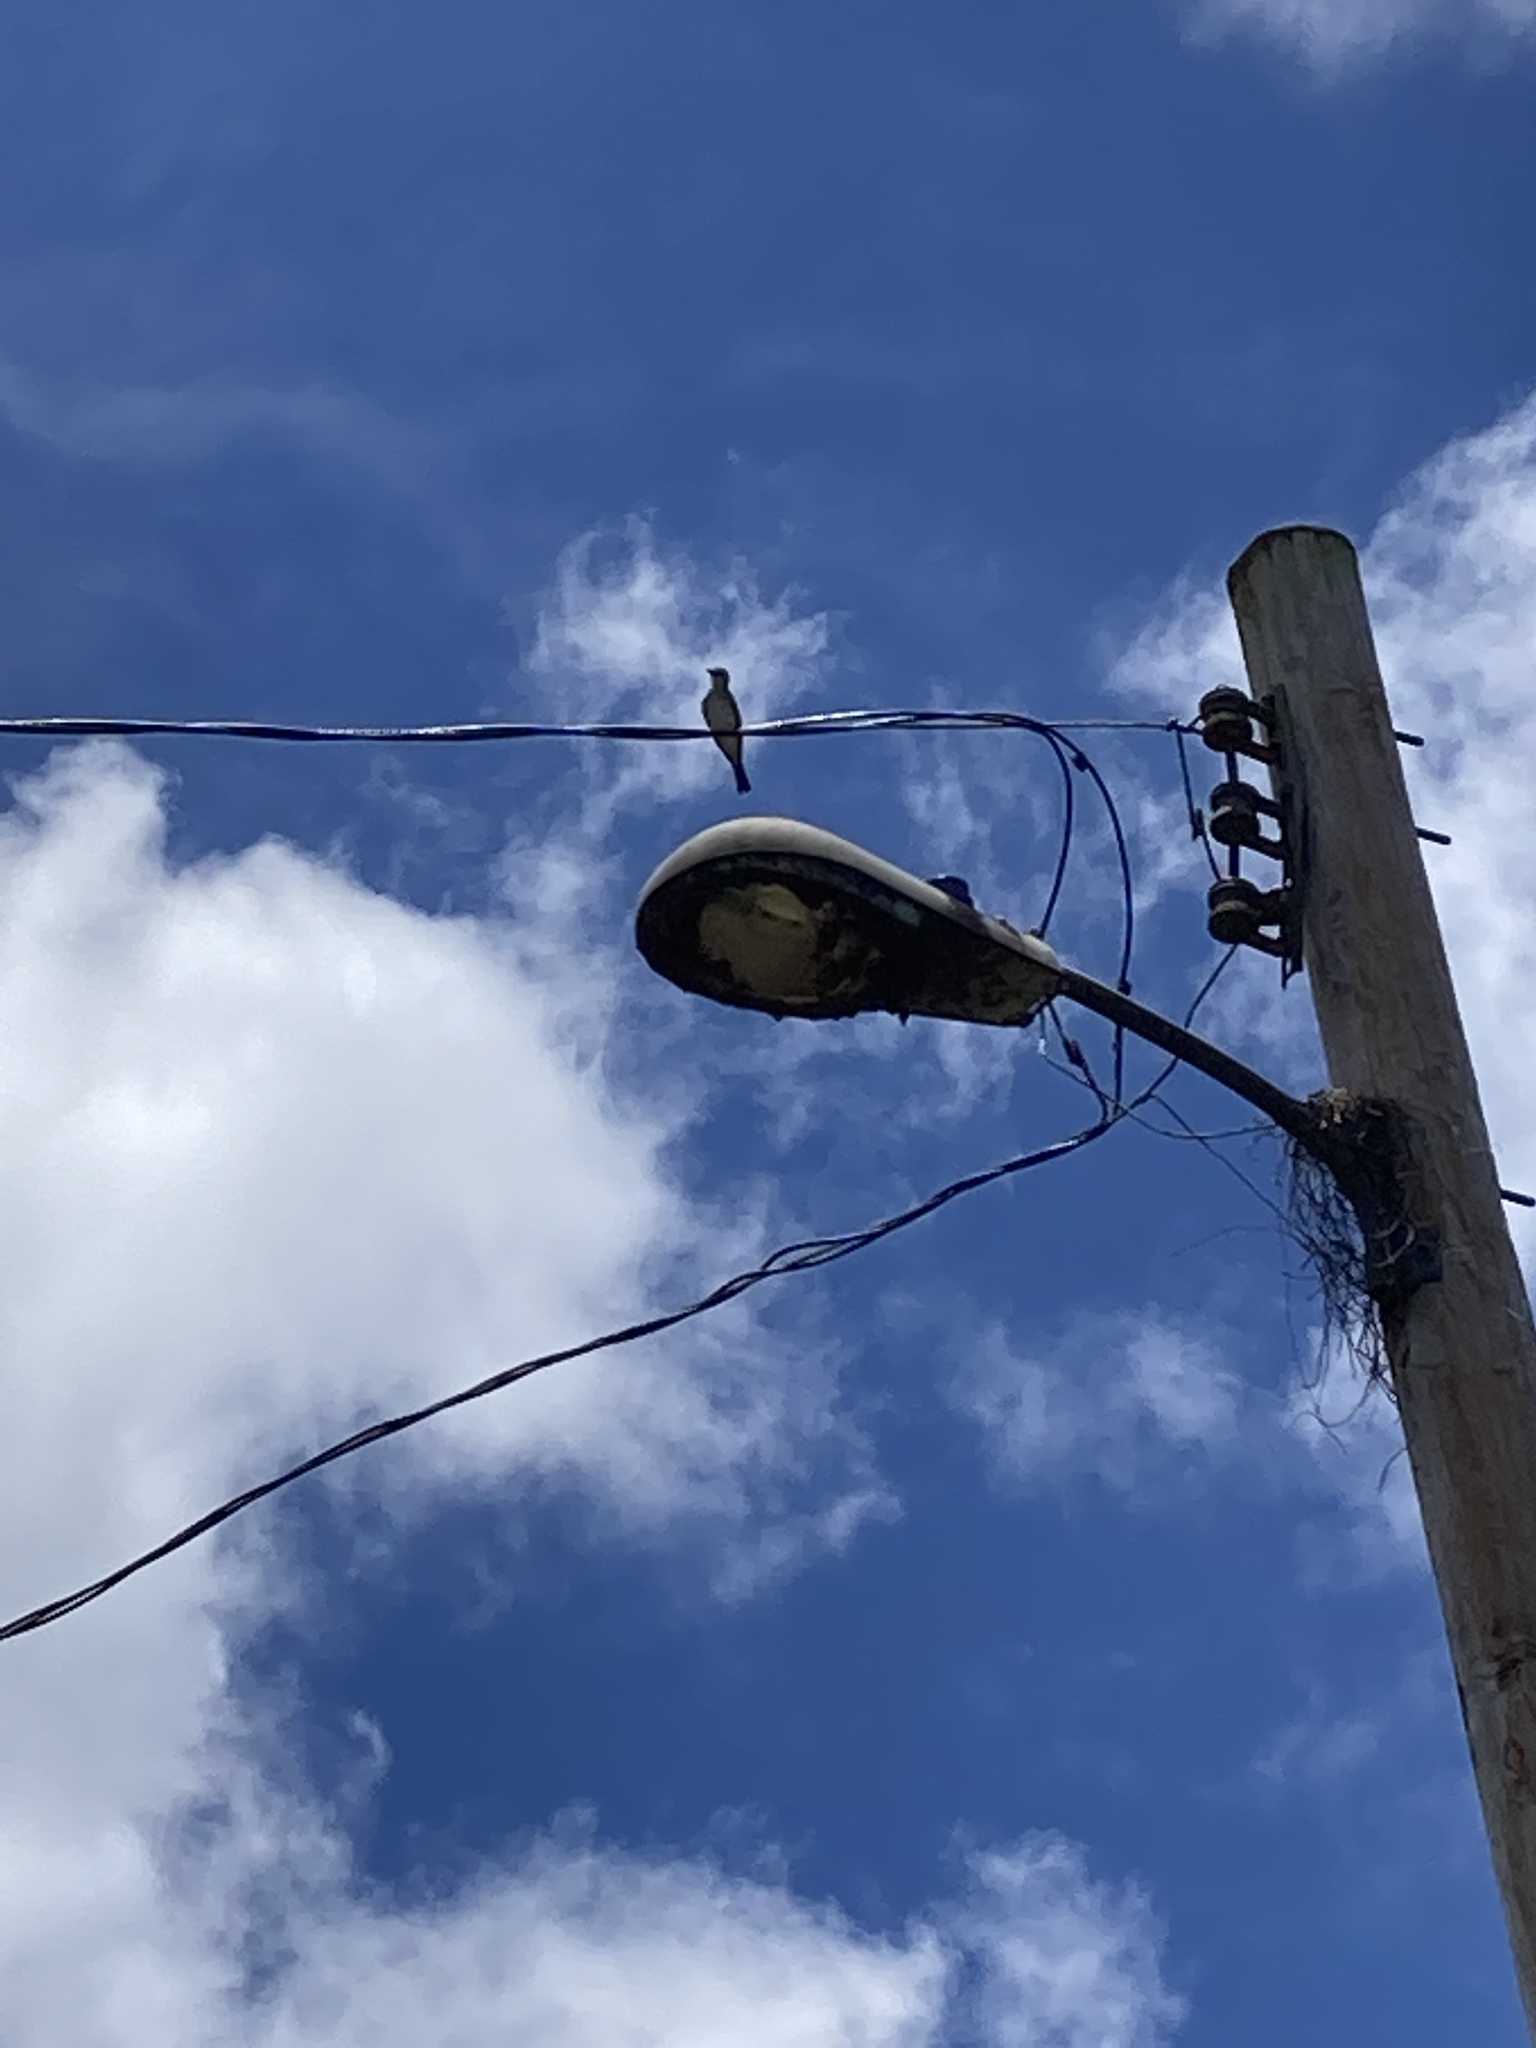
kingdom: Animalia
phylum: Chordata
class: Aves
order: Passeriformes
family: Tyrannidae
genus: Tyrannus
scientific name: Tyrannus dominicensis
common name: Gray kingbird
